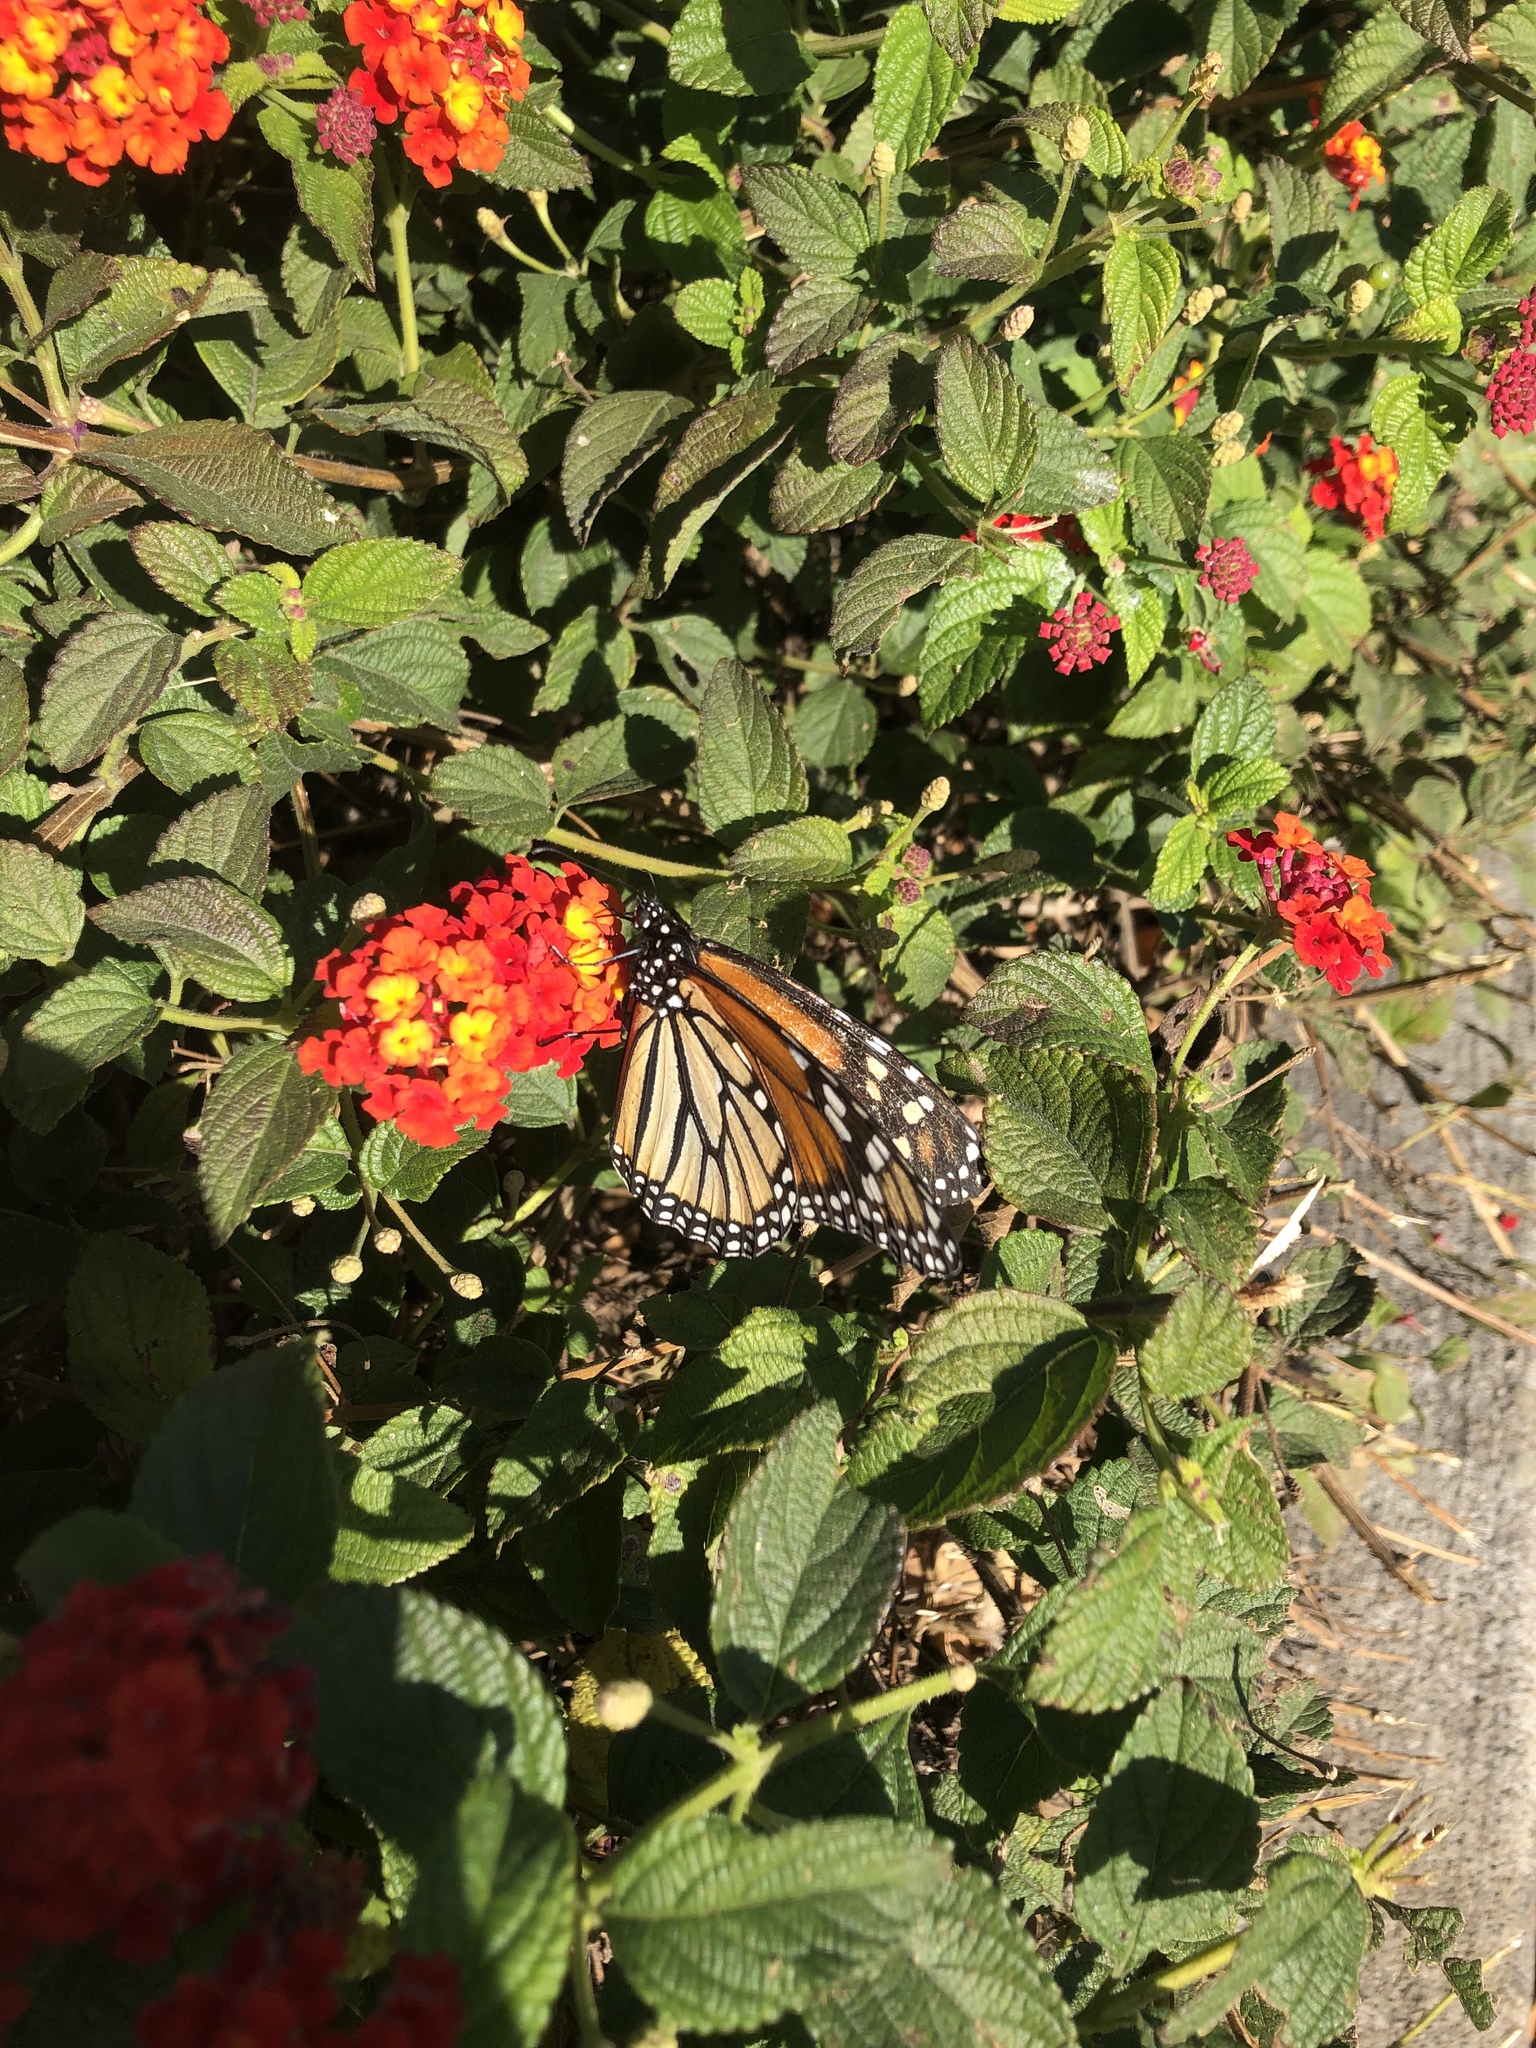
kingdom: Animalia
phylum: Arthropoda
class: Insecta
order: Lepidoptera
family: Nymphalidae
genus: Danaus
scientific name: Danaus plexippus
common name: Monarch
